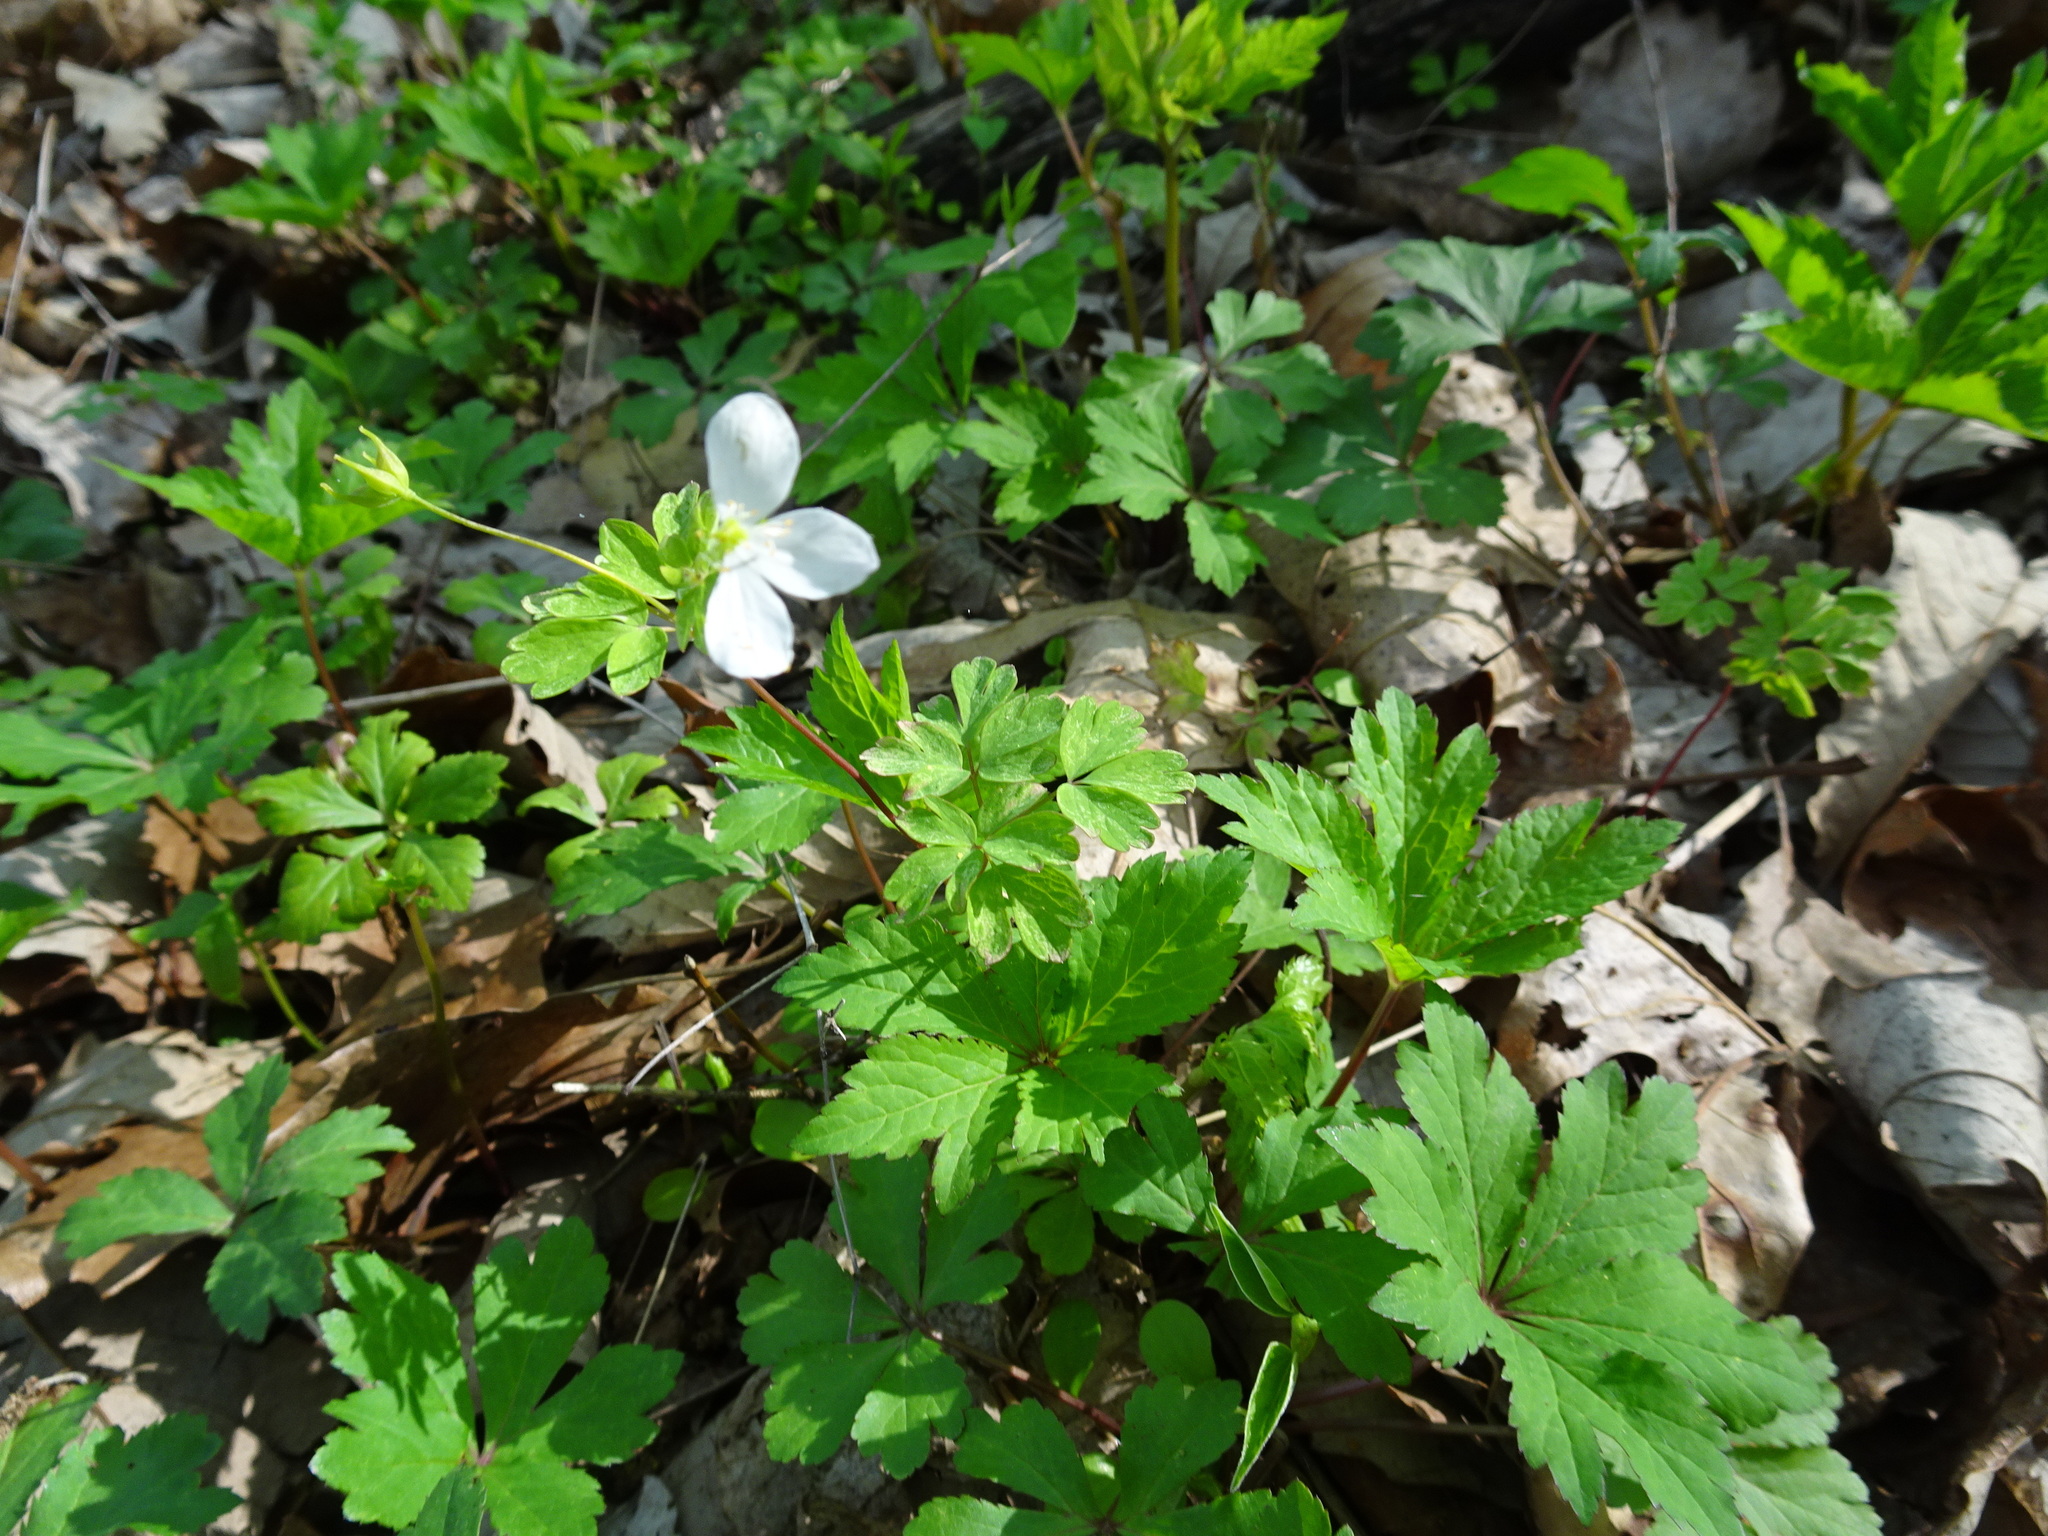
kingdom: Plantae
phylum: Tracheophyta
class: Magnoliopsida
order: Ranunculales
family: Ranunculaceae
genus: Enemion
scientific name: Enemion biternatum
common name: Eastern false rue-anemone
